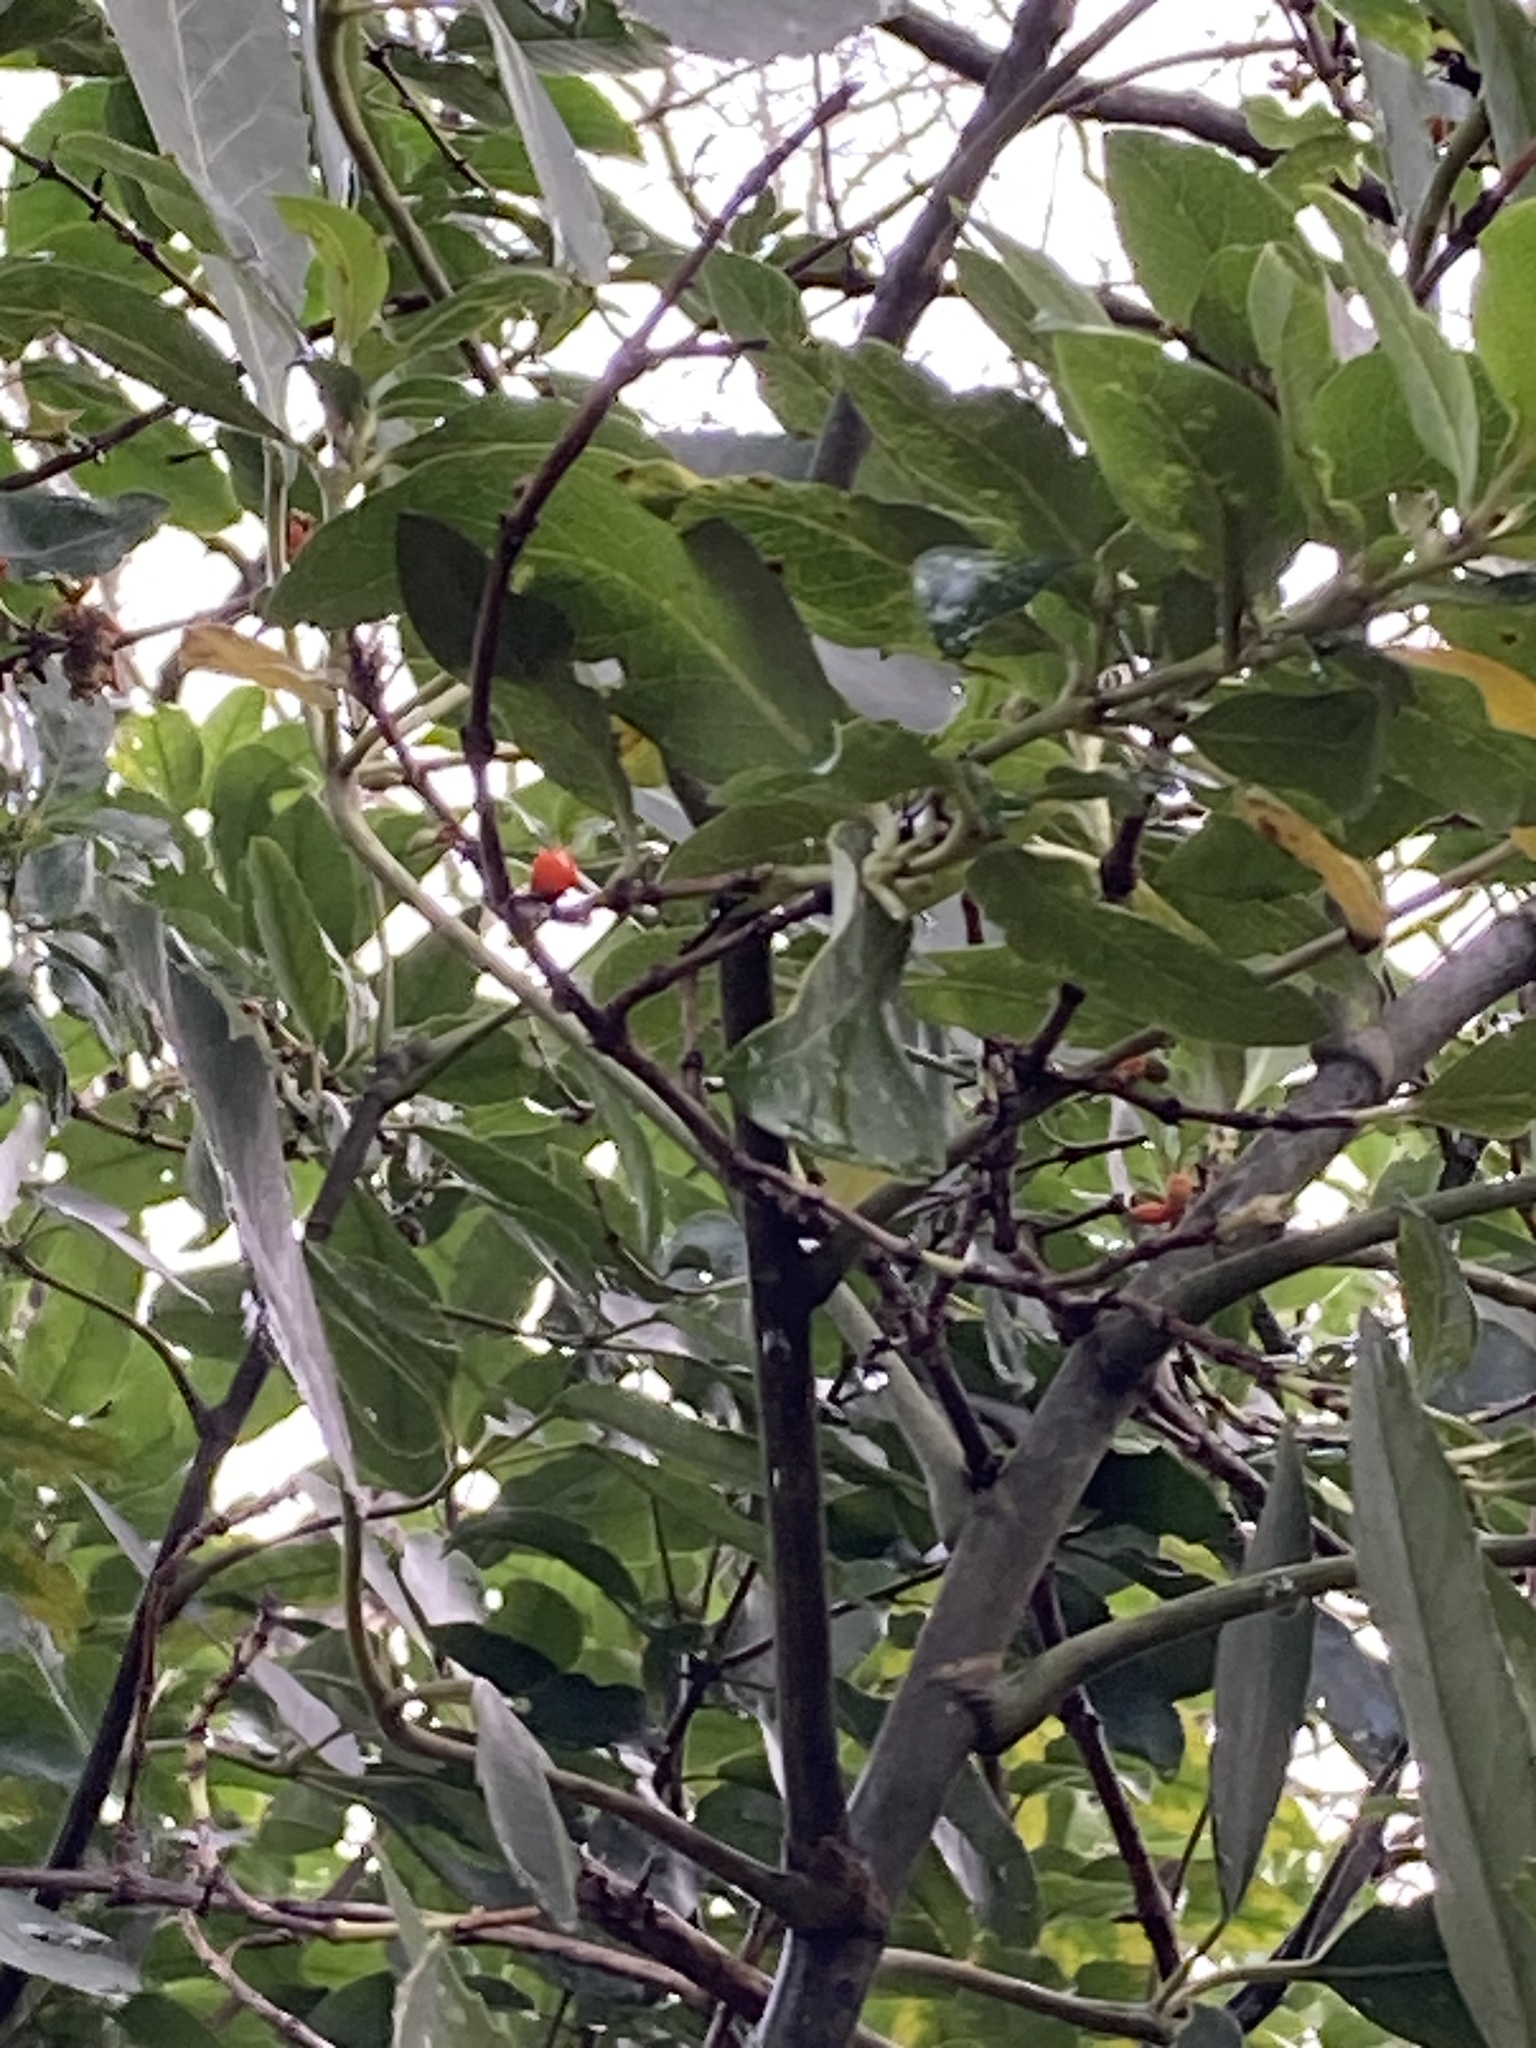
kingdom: Plantae
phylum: Tracheophyta
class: Magnoliopsida
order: Gentianales
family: Rubiaceae
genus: Coprosma
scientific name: Coprosma robusta
